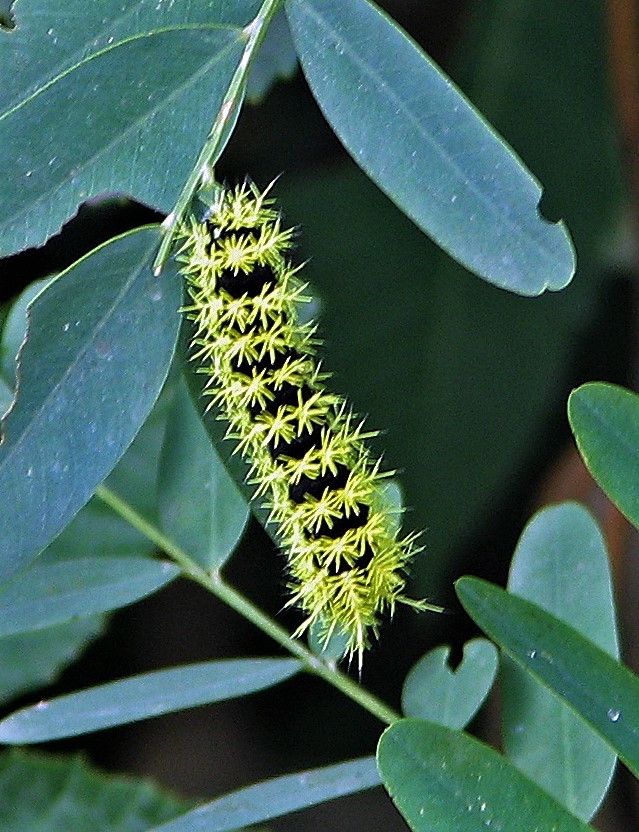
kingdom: Animalia
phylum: Arthropoda
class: Insecta
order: Lepidoptera
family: Saturniidae
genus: Leucanella
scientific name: Leucanella viridescens
